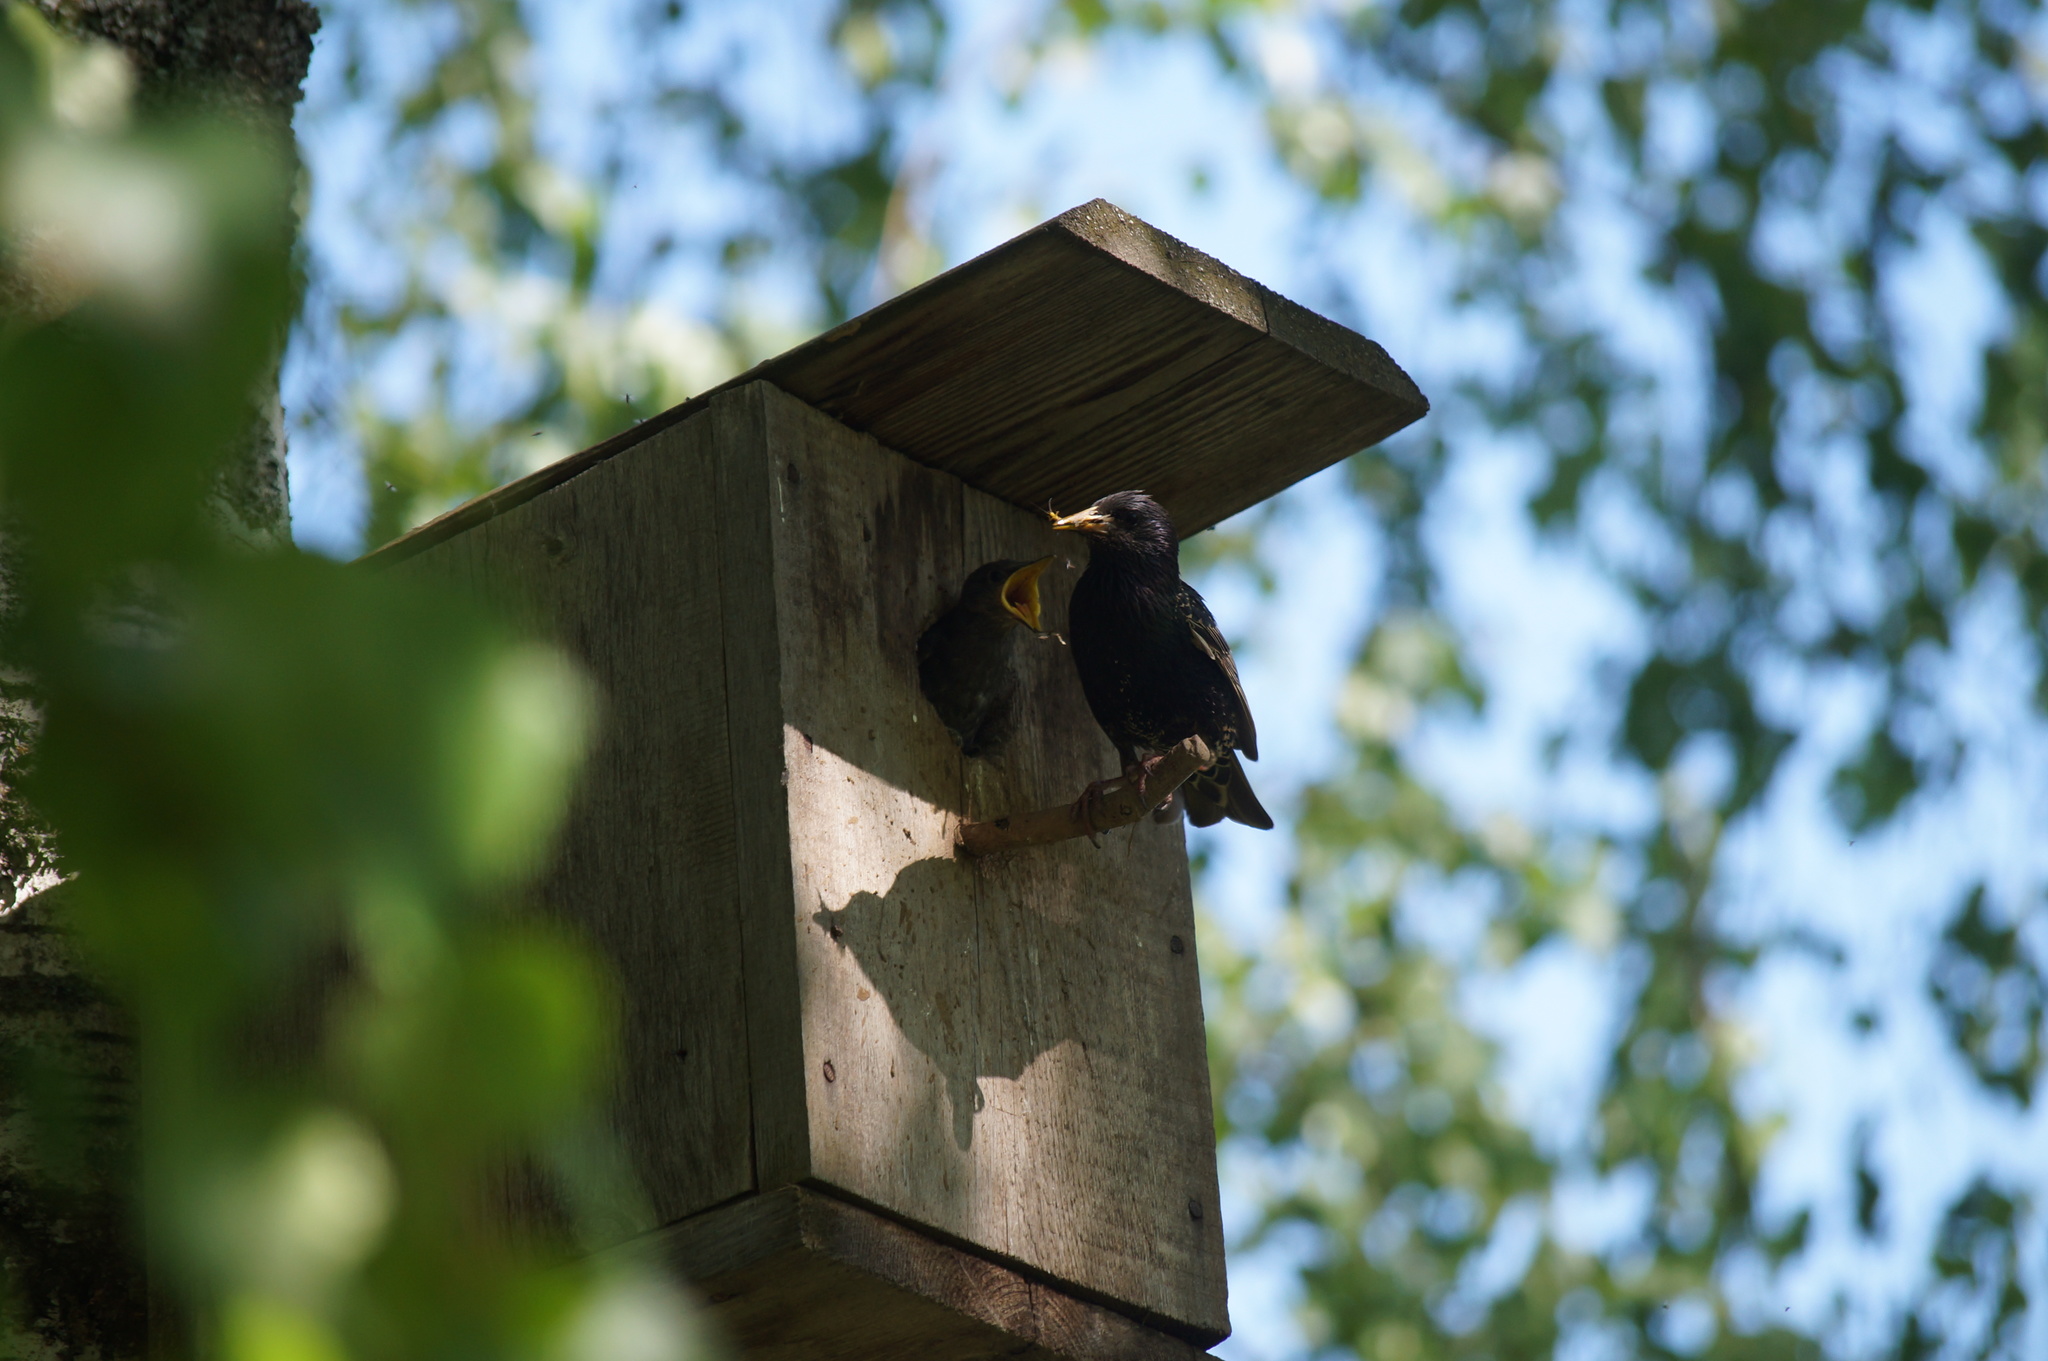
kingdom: Animalia
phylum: Chordata
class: Aves
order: Passeriformes
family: Sturnidae
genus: Sturnus
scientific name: Sturnus vulgaris
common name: Common starling
